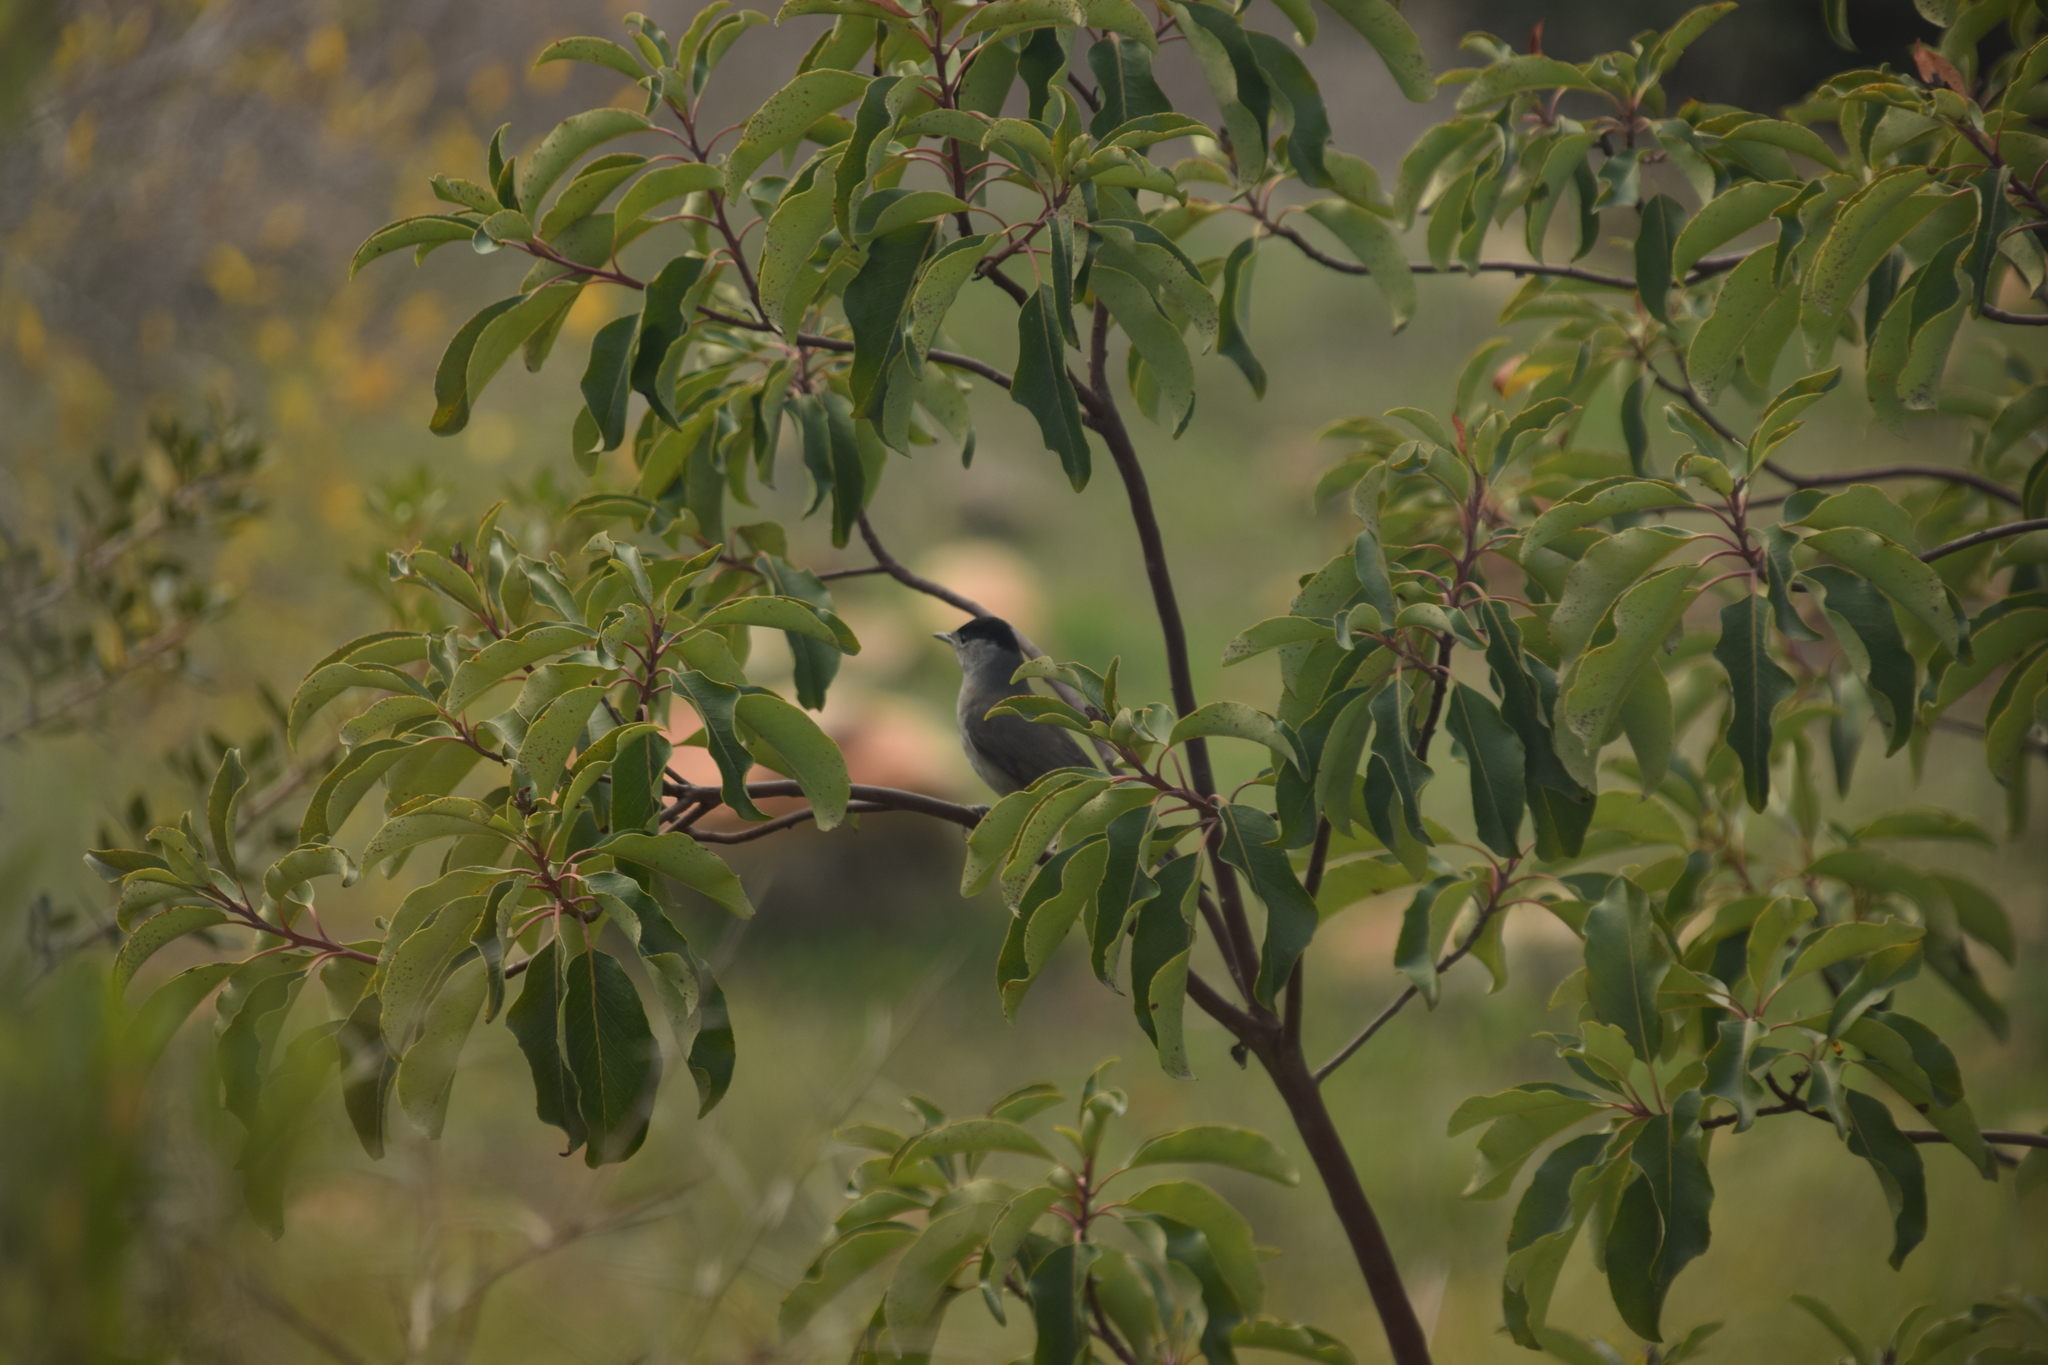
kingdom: Animalia
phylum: Chordata
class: Aves
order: Passeriformes
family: Sylviidae
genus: Sylvia
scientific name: Sylvia atricapilla
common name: Eurasian blackcap
